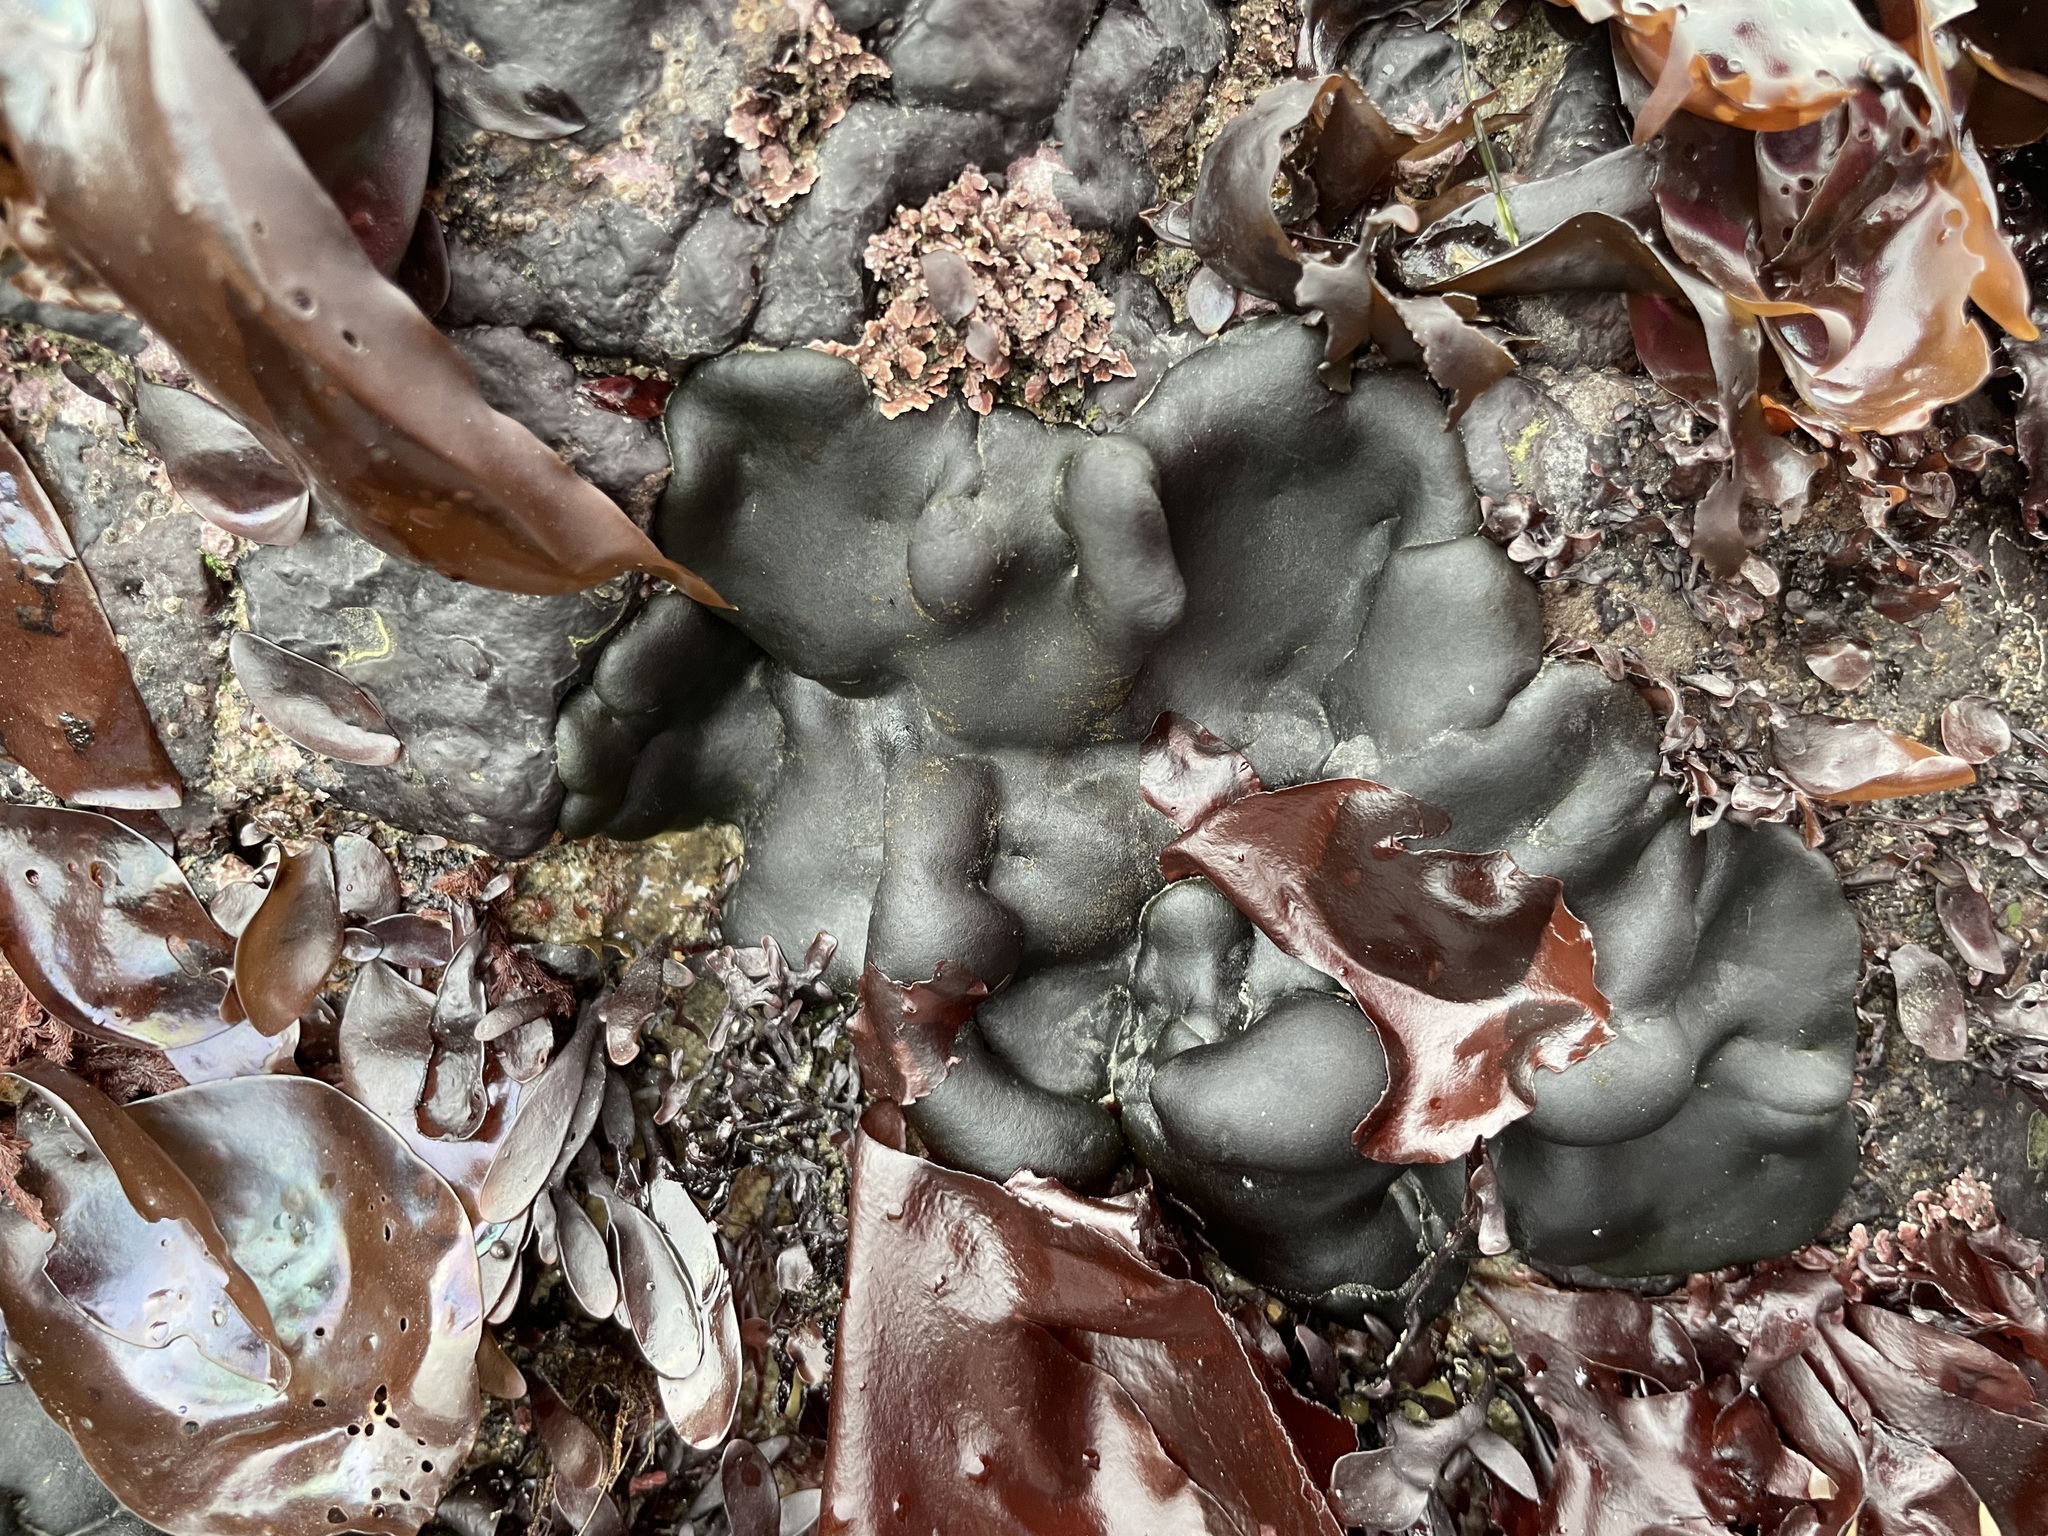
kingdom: Plantae
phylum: Chlorophyta
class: Ulvophyceae
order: Bryopsidales
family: Codiaceae
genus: Codium
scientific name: Codium setchellii
